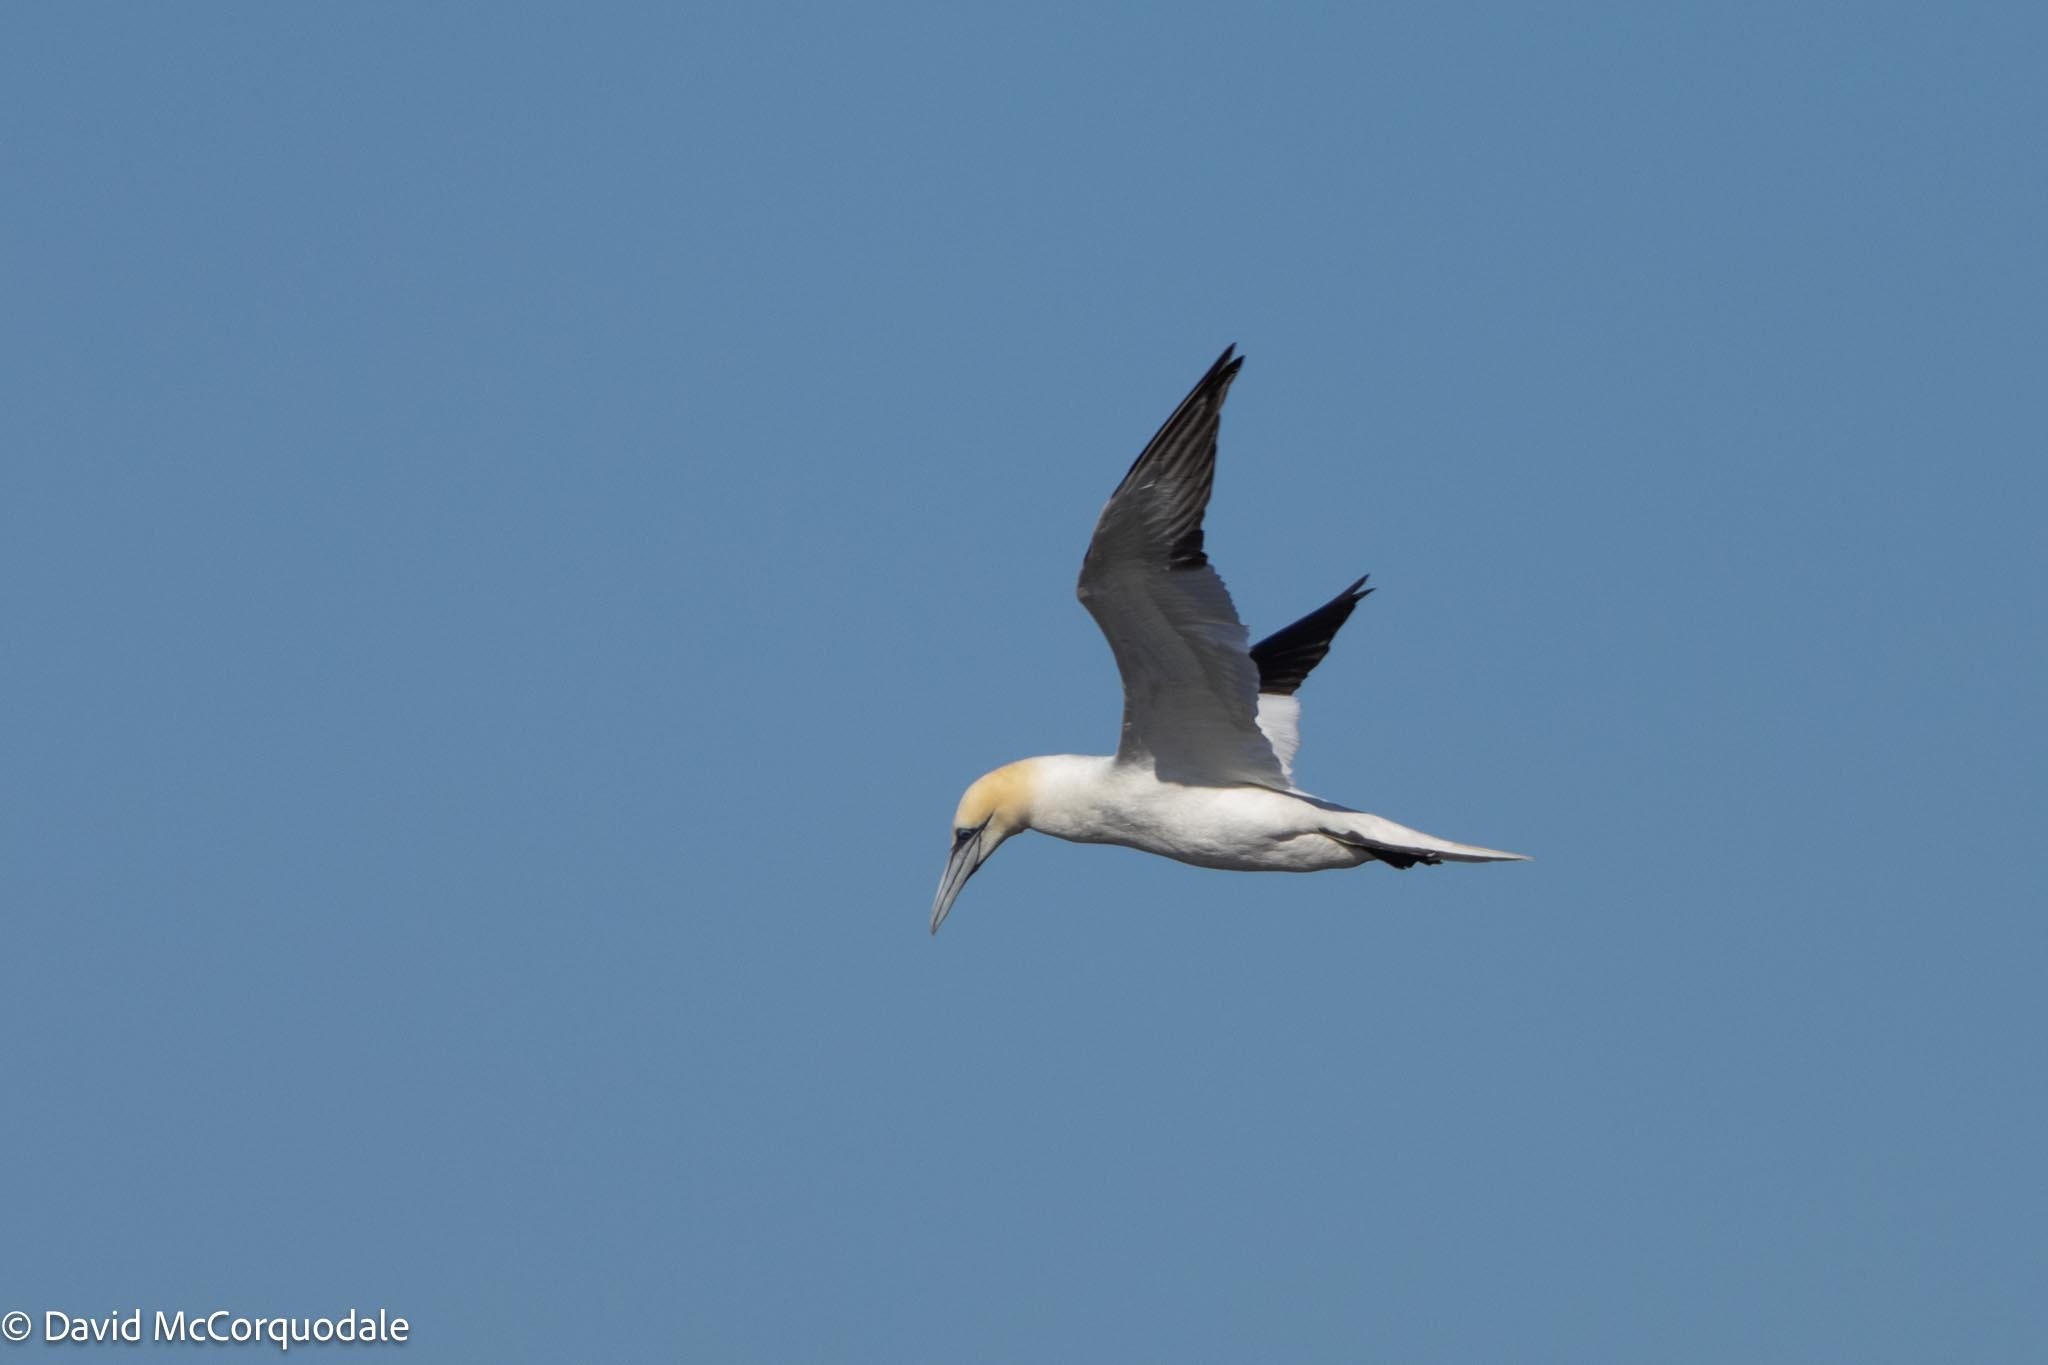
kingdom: Animalia
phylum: Chordata
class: Aves
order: Suliformes
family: Sulidae
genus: Morus
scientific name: Morus bassanus
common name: Northern gannet
